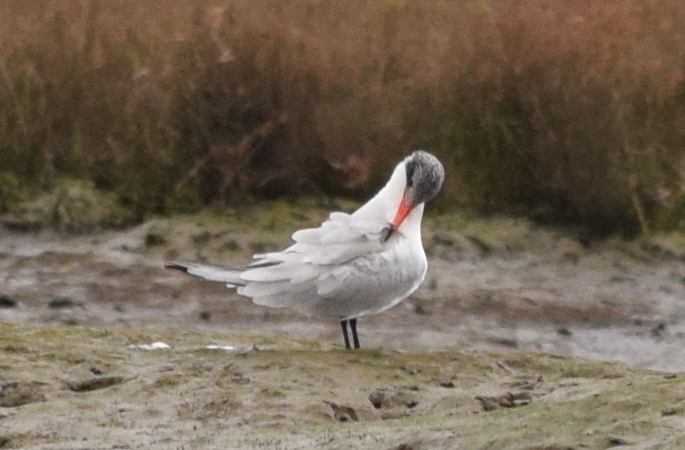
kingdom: Animalia
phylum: Chordata
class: Aves
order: Charadriiformes
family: Laridae
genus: Hydroprogne
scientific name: Hydroprogne caspia
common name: Caspian tern
